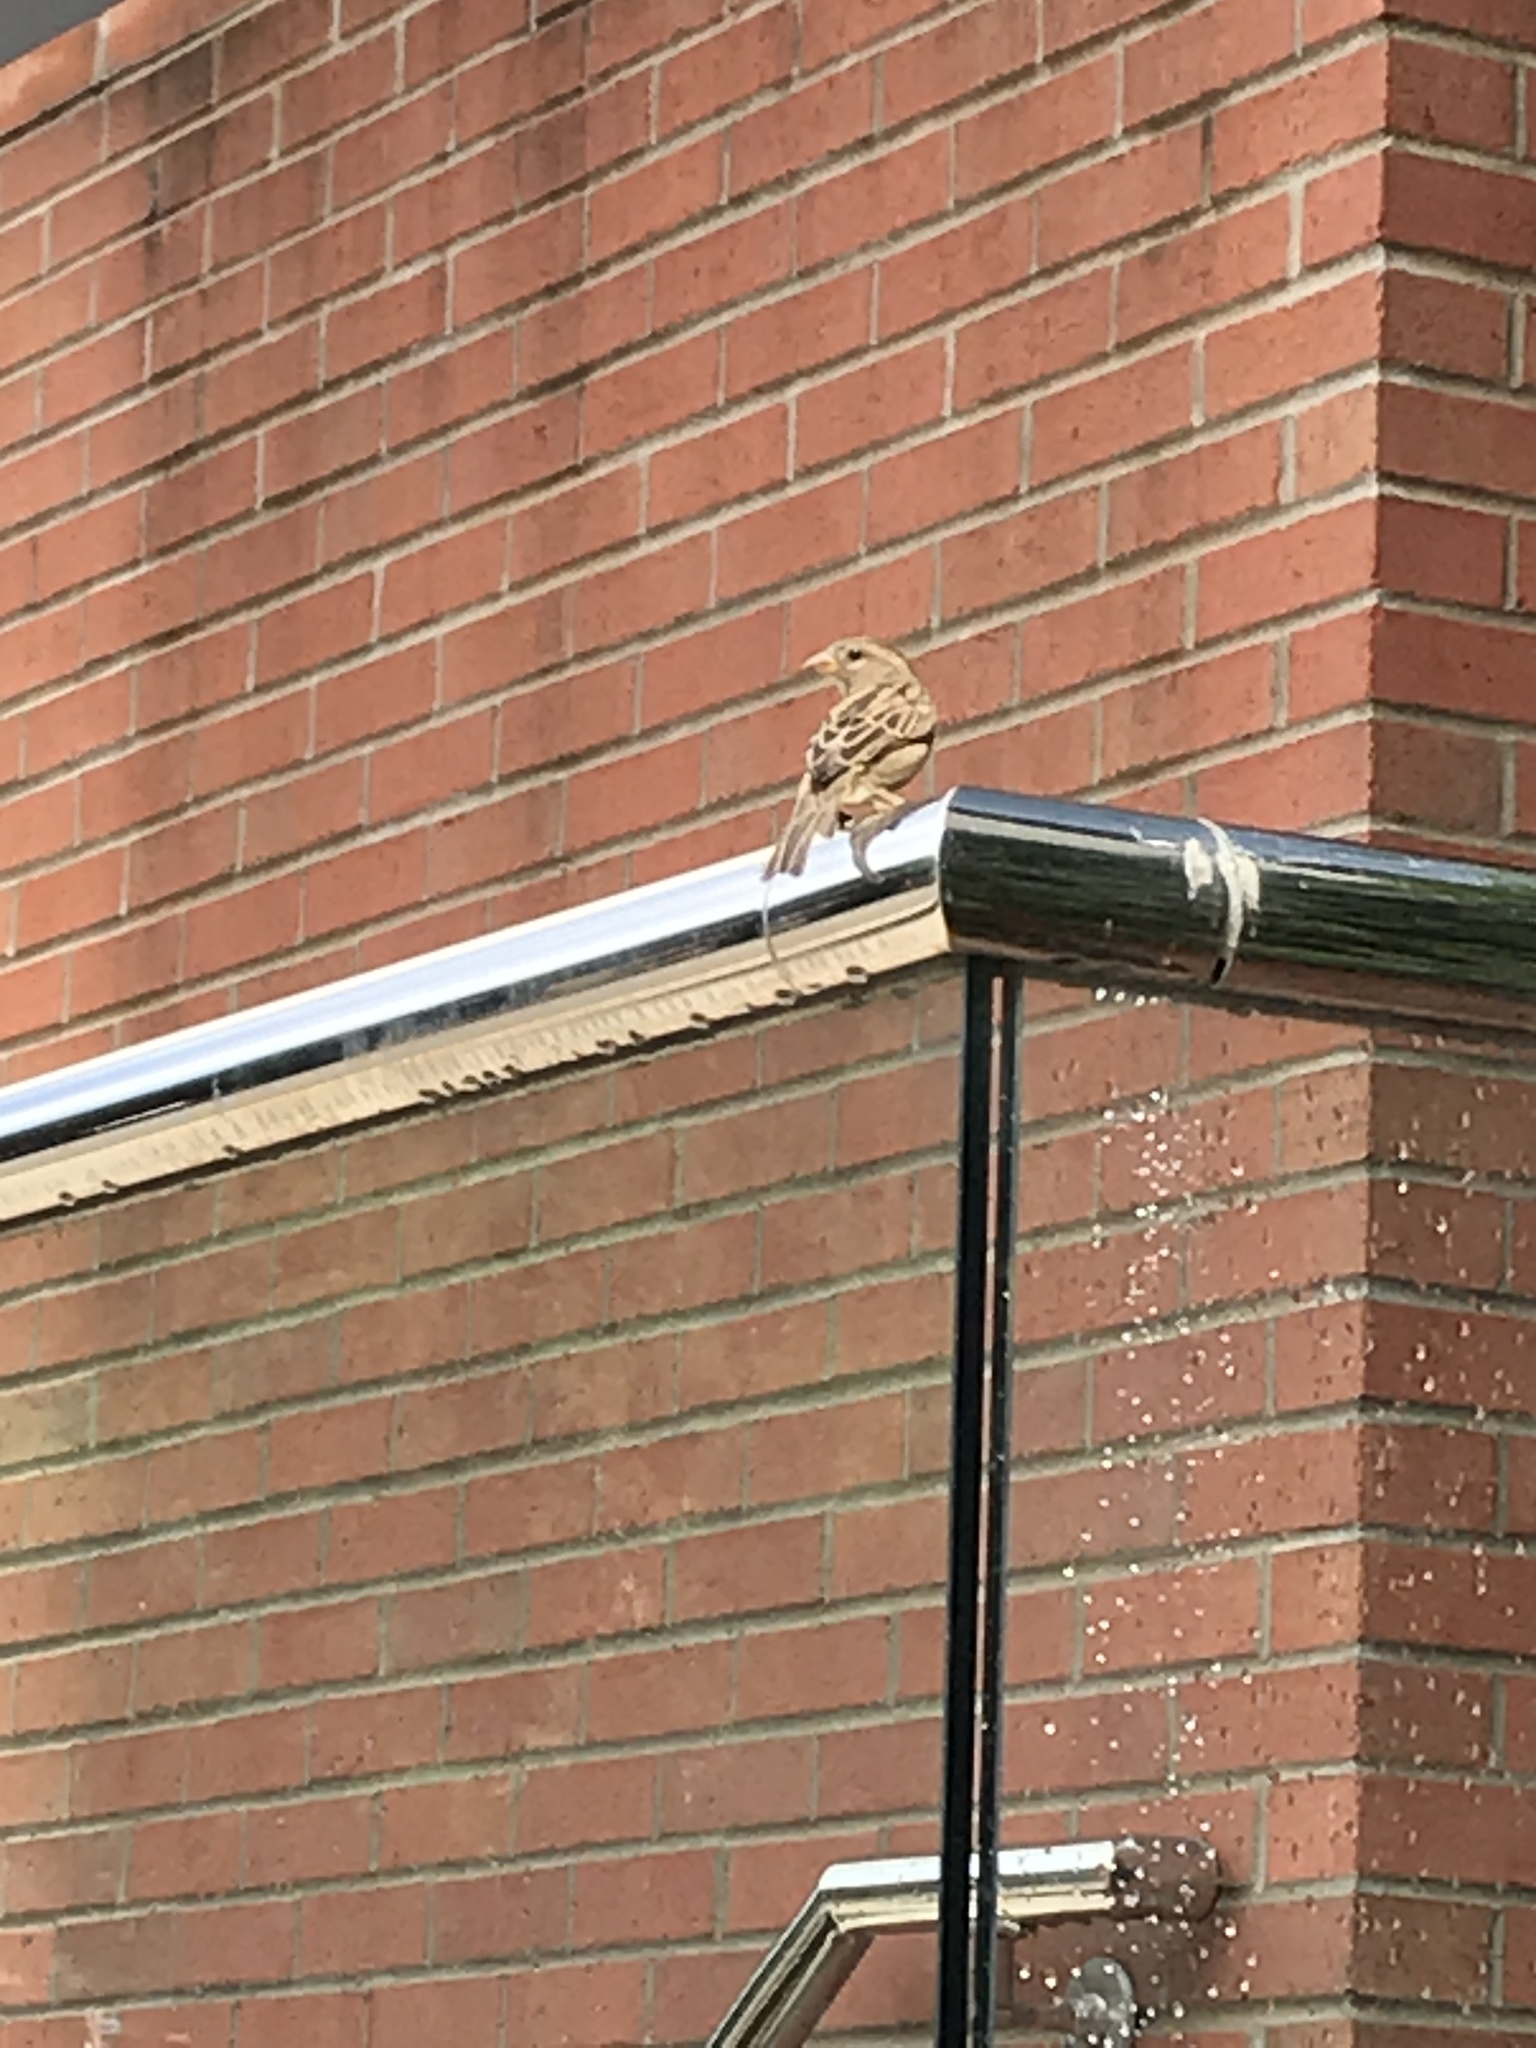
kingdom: Animalia
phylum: Chordata
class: Aves
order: Passeriformes
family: Passeridae
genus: Passer
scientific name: Passer domesticus
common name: House sparrow
